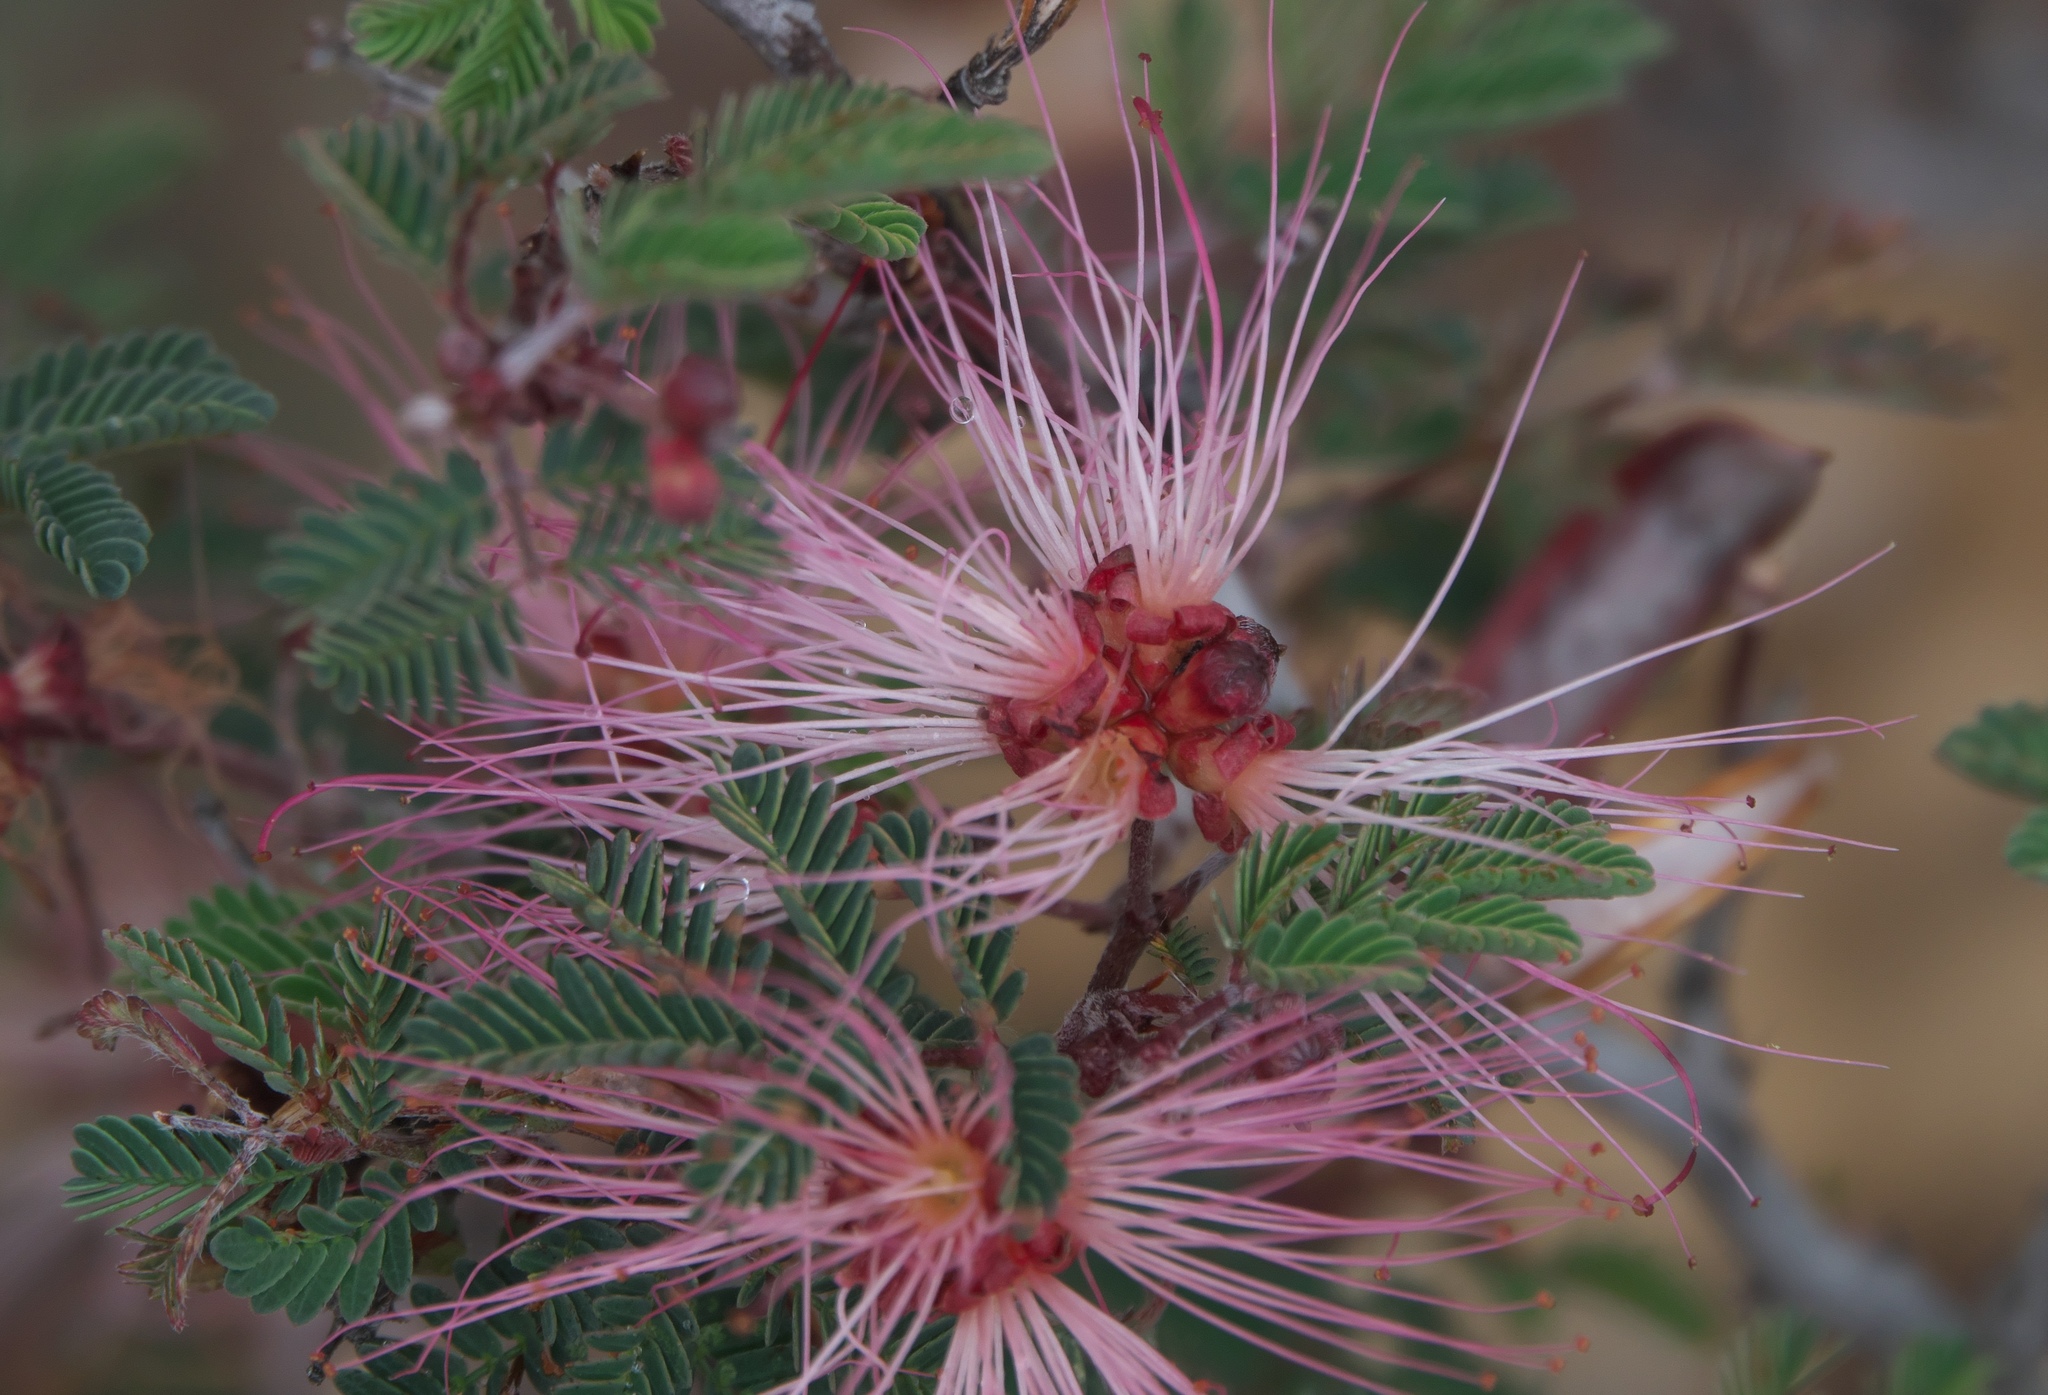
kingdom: Plantae
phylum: Tracheophyta
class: Magnoliopsida
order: Fabales
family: Fabaceae
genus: Calliandra
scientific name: Calliandra eriophylla
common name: Fairy-duster
